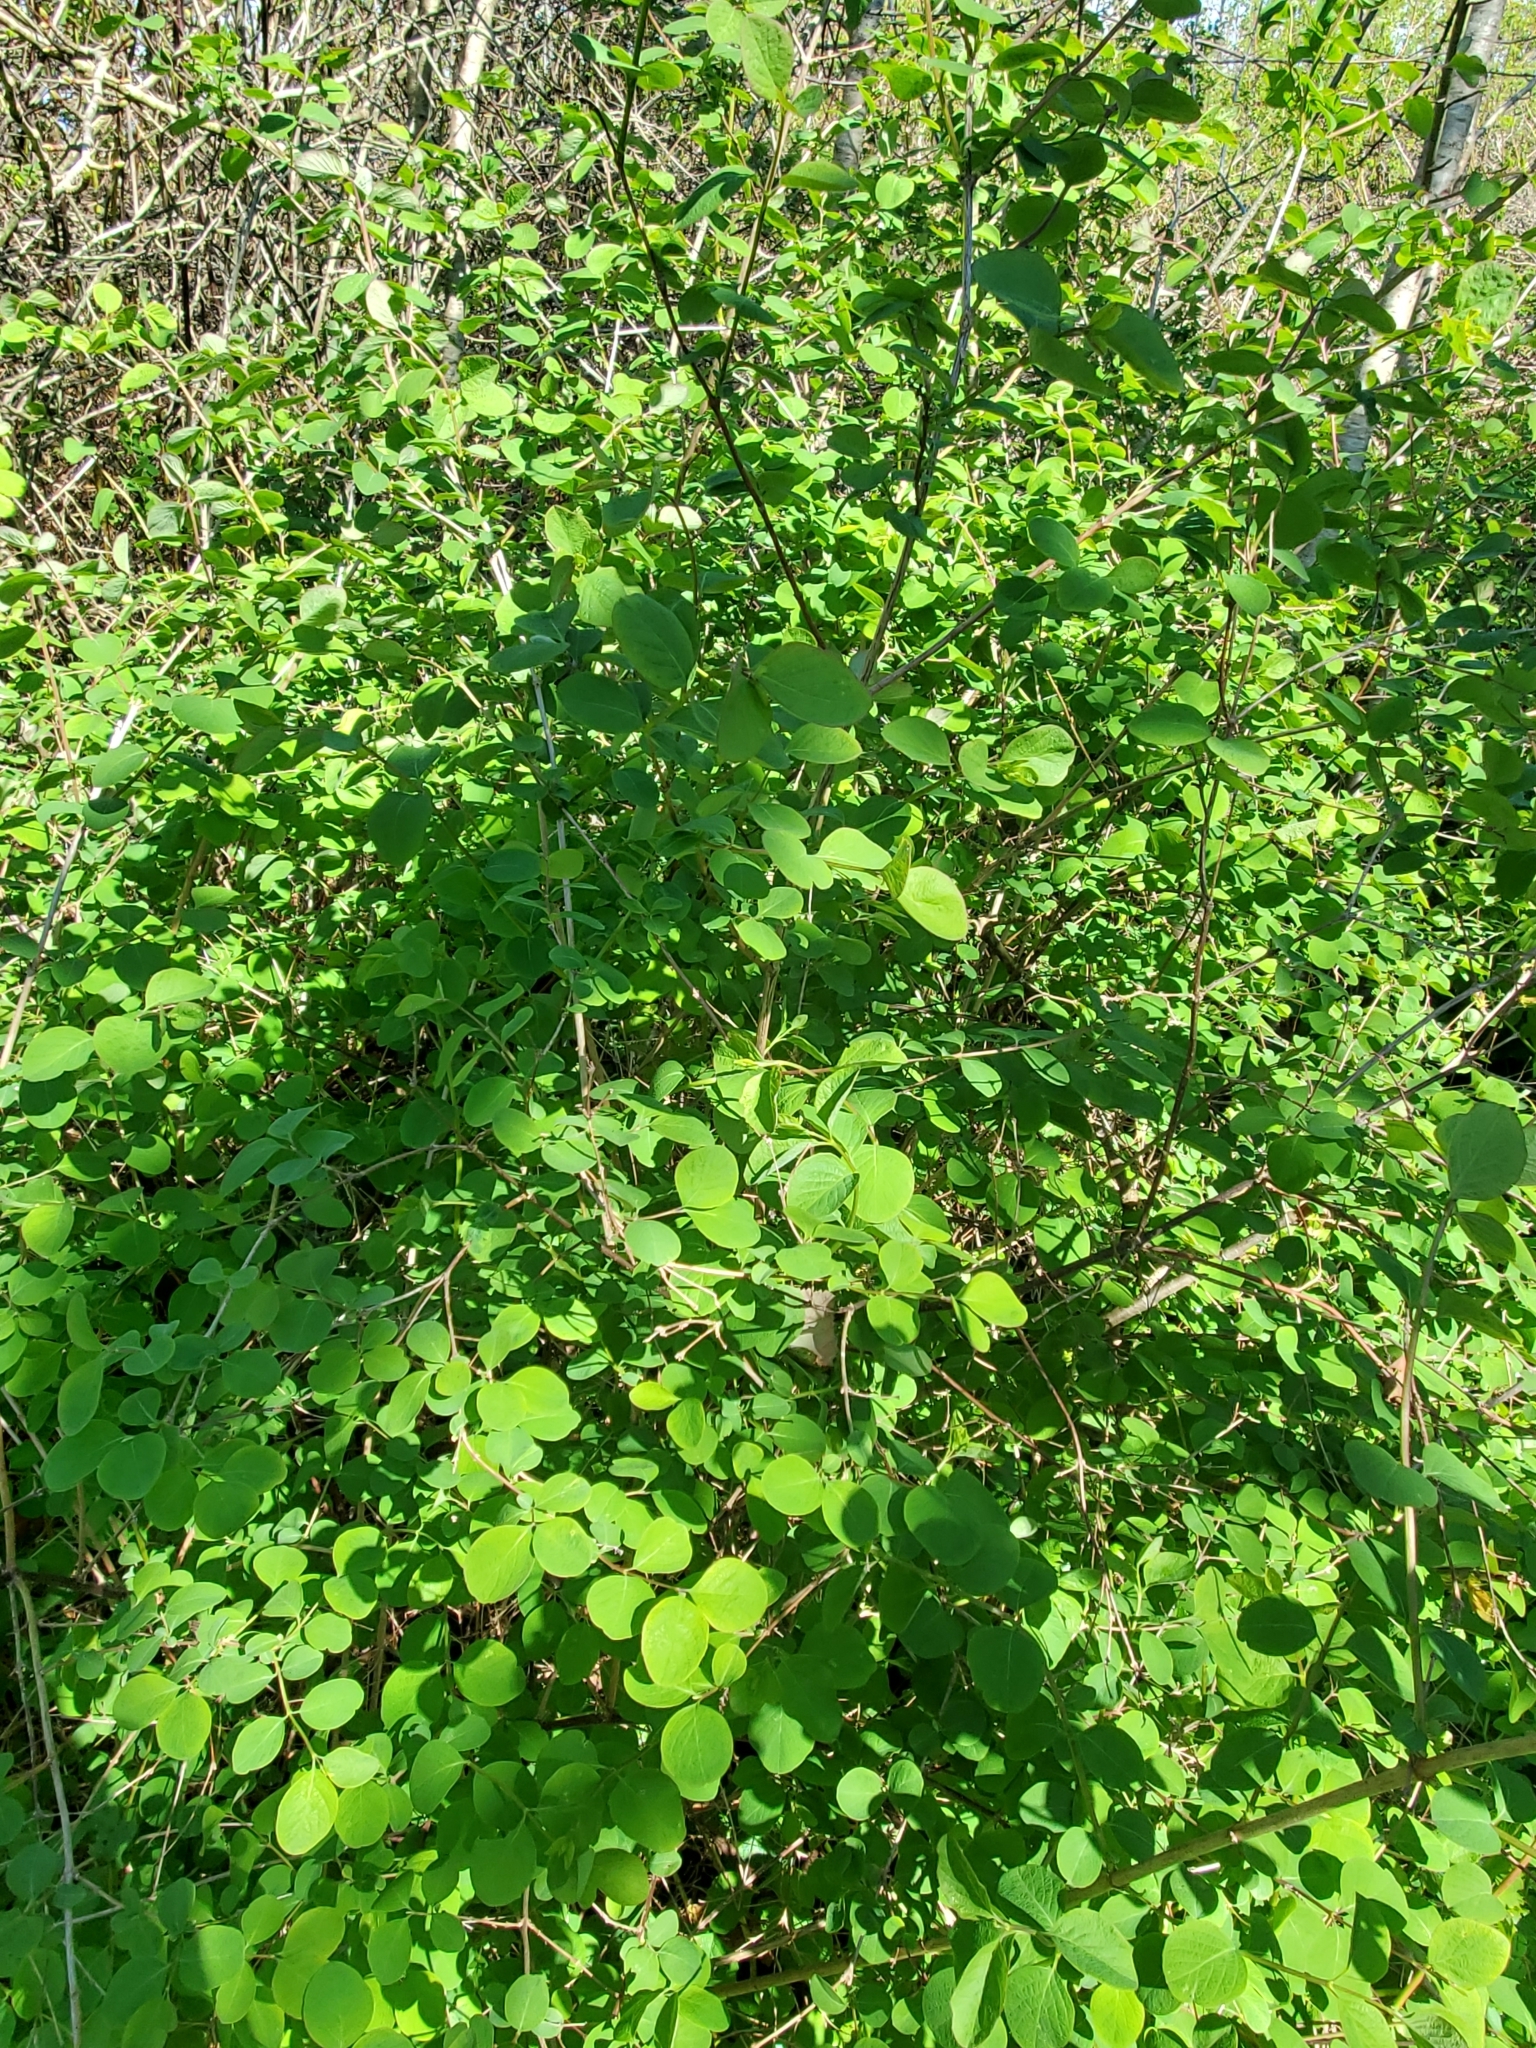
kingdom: Plantae
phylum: Tracheophyta
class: Magnoliopsida
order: Dipsacales
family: Caprifoliaceae
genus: Symphoricarpos
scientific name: Symphoricarpos albus
